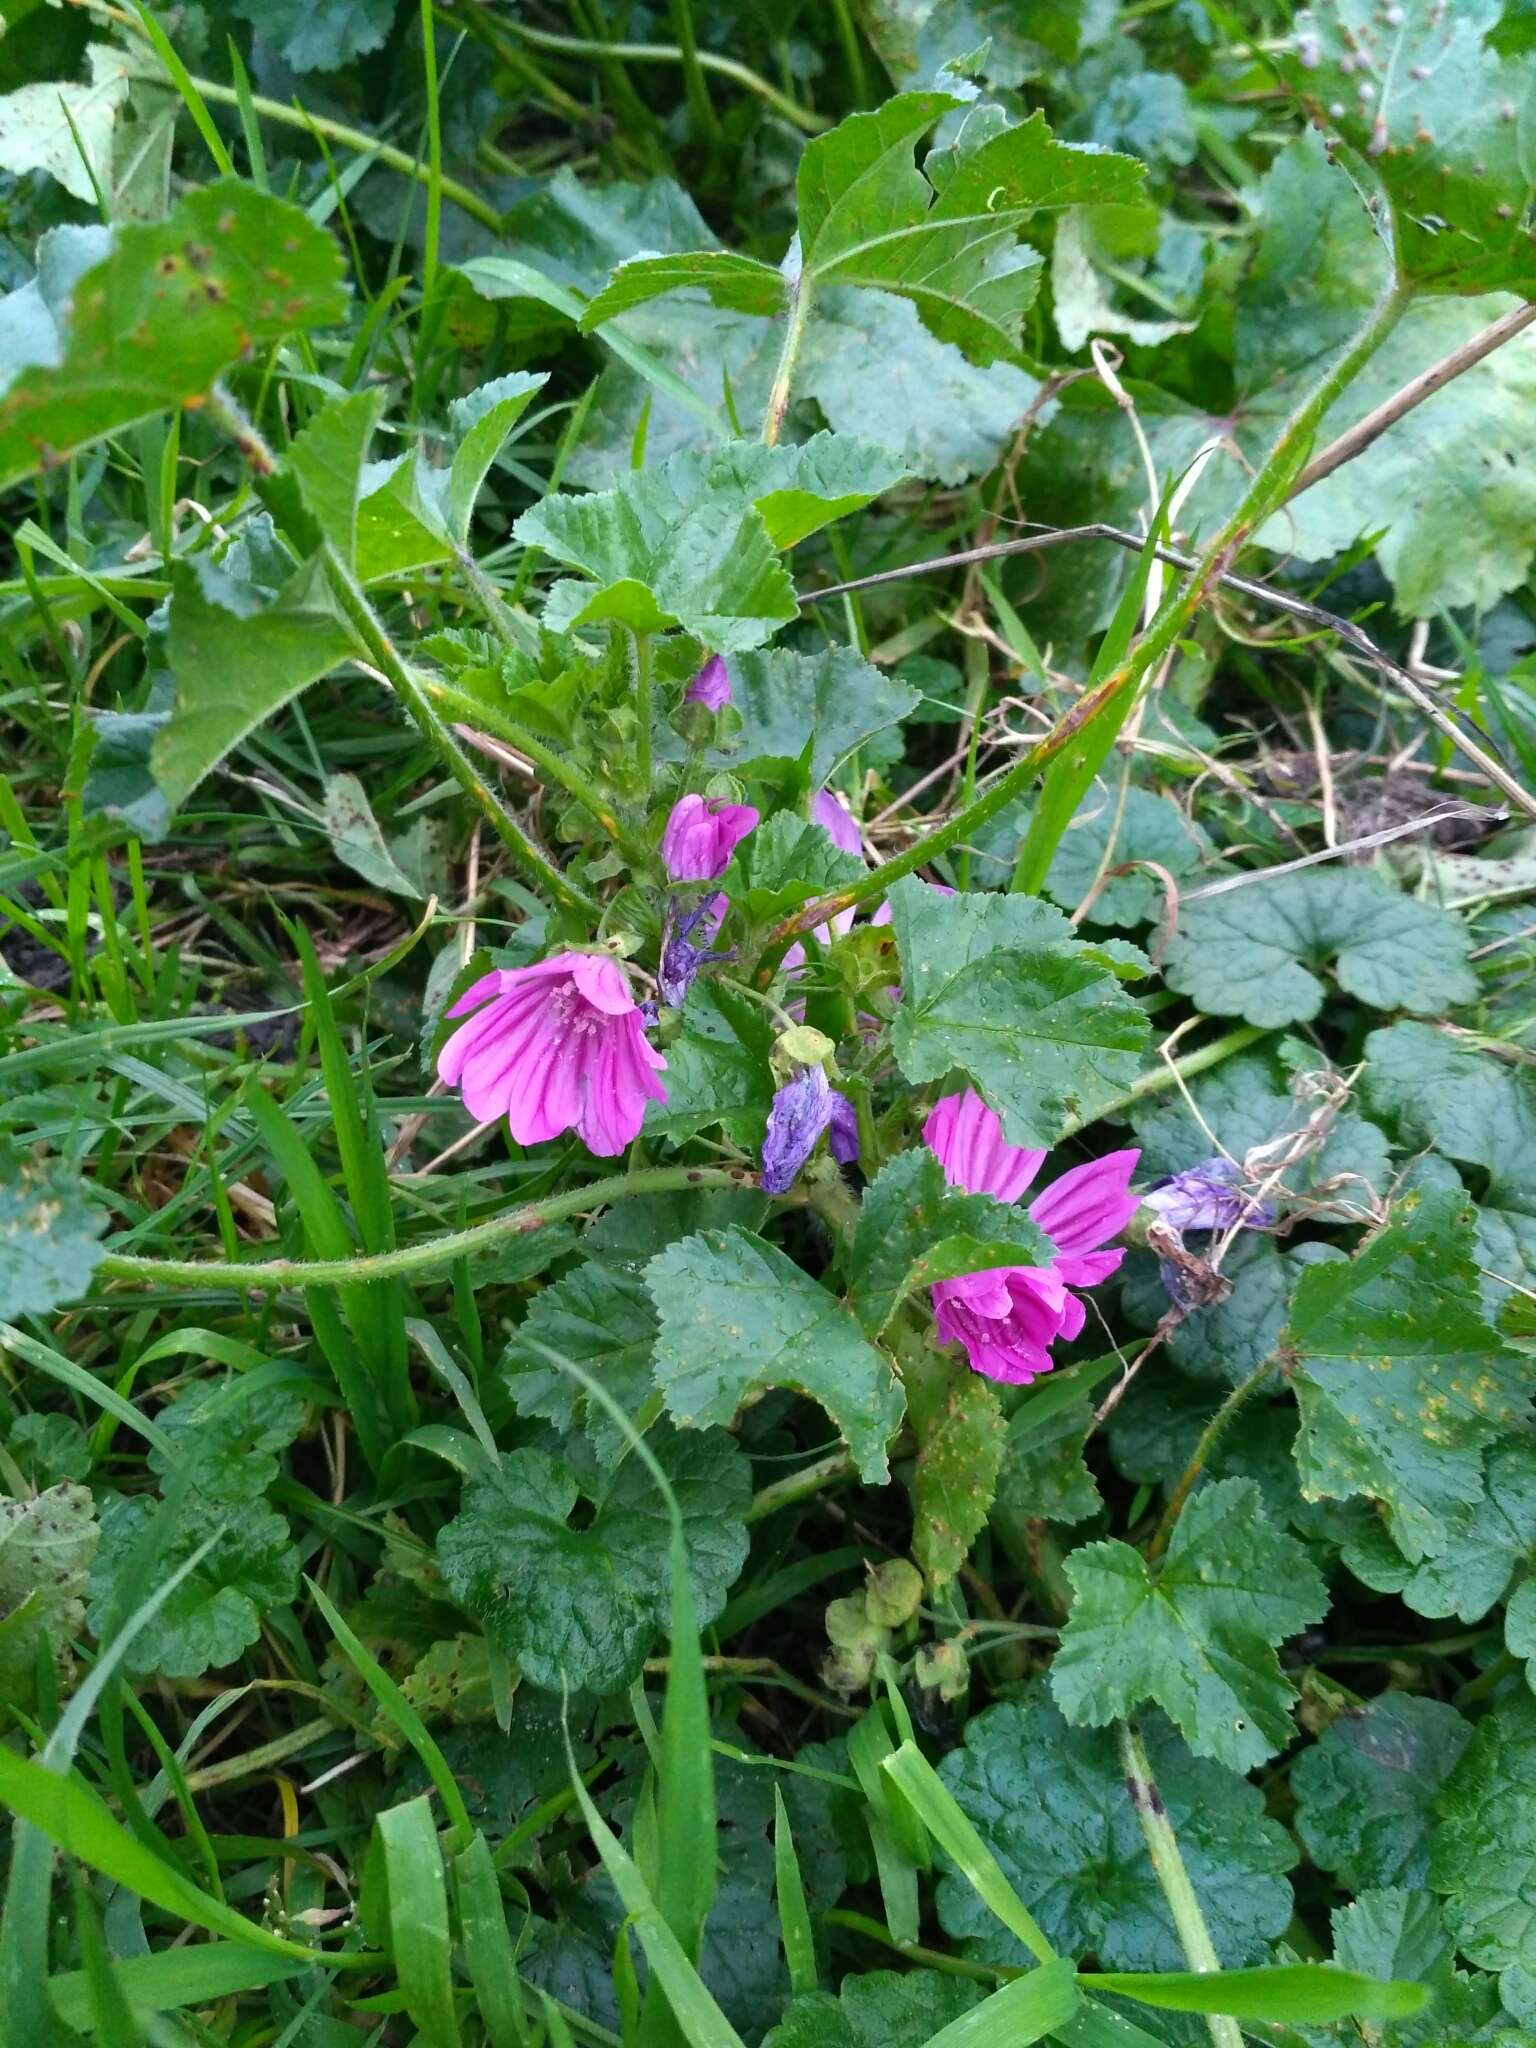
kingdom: Plantae
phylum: Tracheophyta
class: Magnoliopsida
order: Malvales
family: Malvaceae
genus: Malva
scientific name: Malva sylvestris
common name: Common mallow
